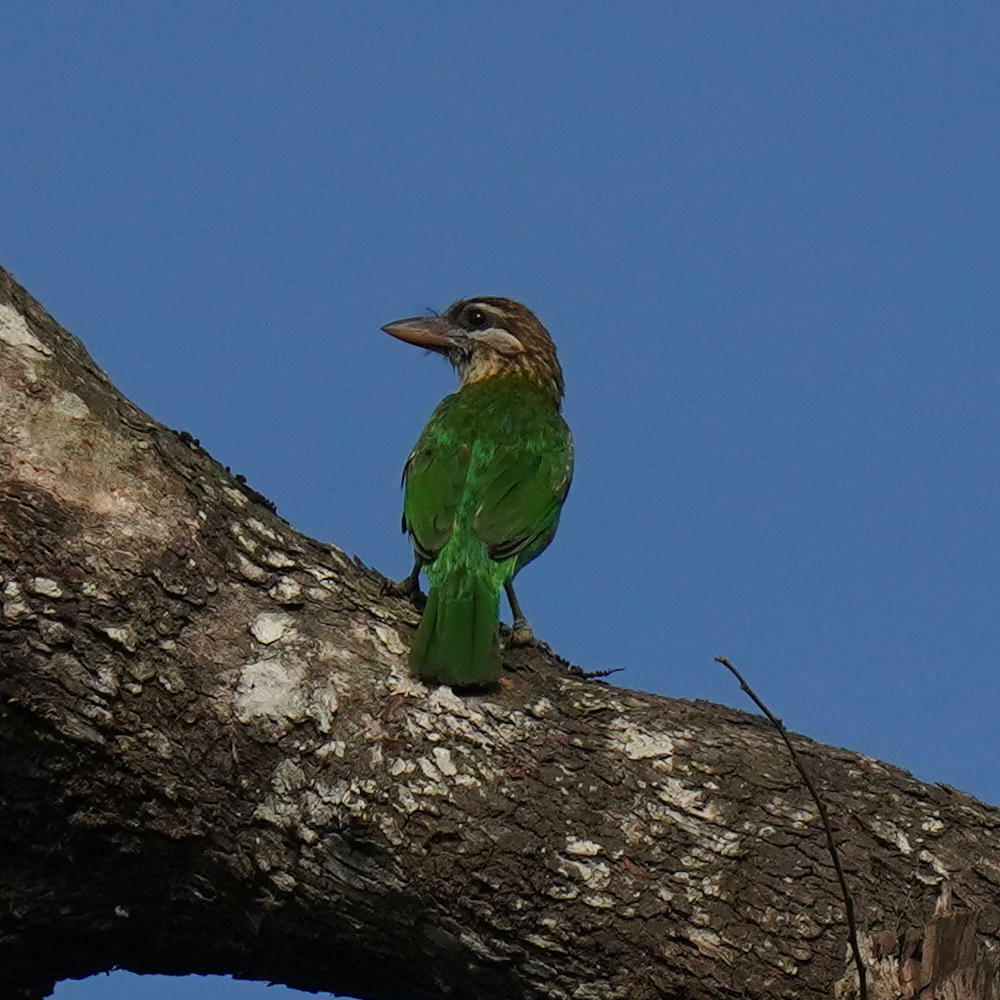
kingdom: Animalia
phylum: Chordata
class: Aves
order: Piciformes
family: Megalaimidae
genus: Psilopogon
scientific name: Psilopogon viridis
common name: White-cheeked barbet
